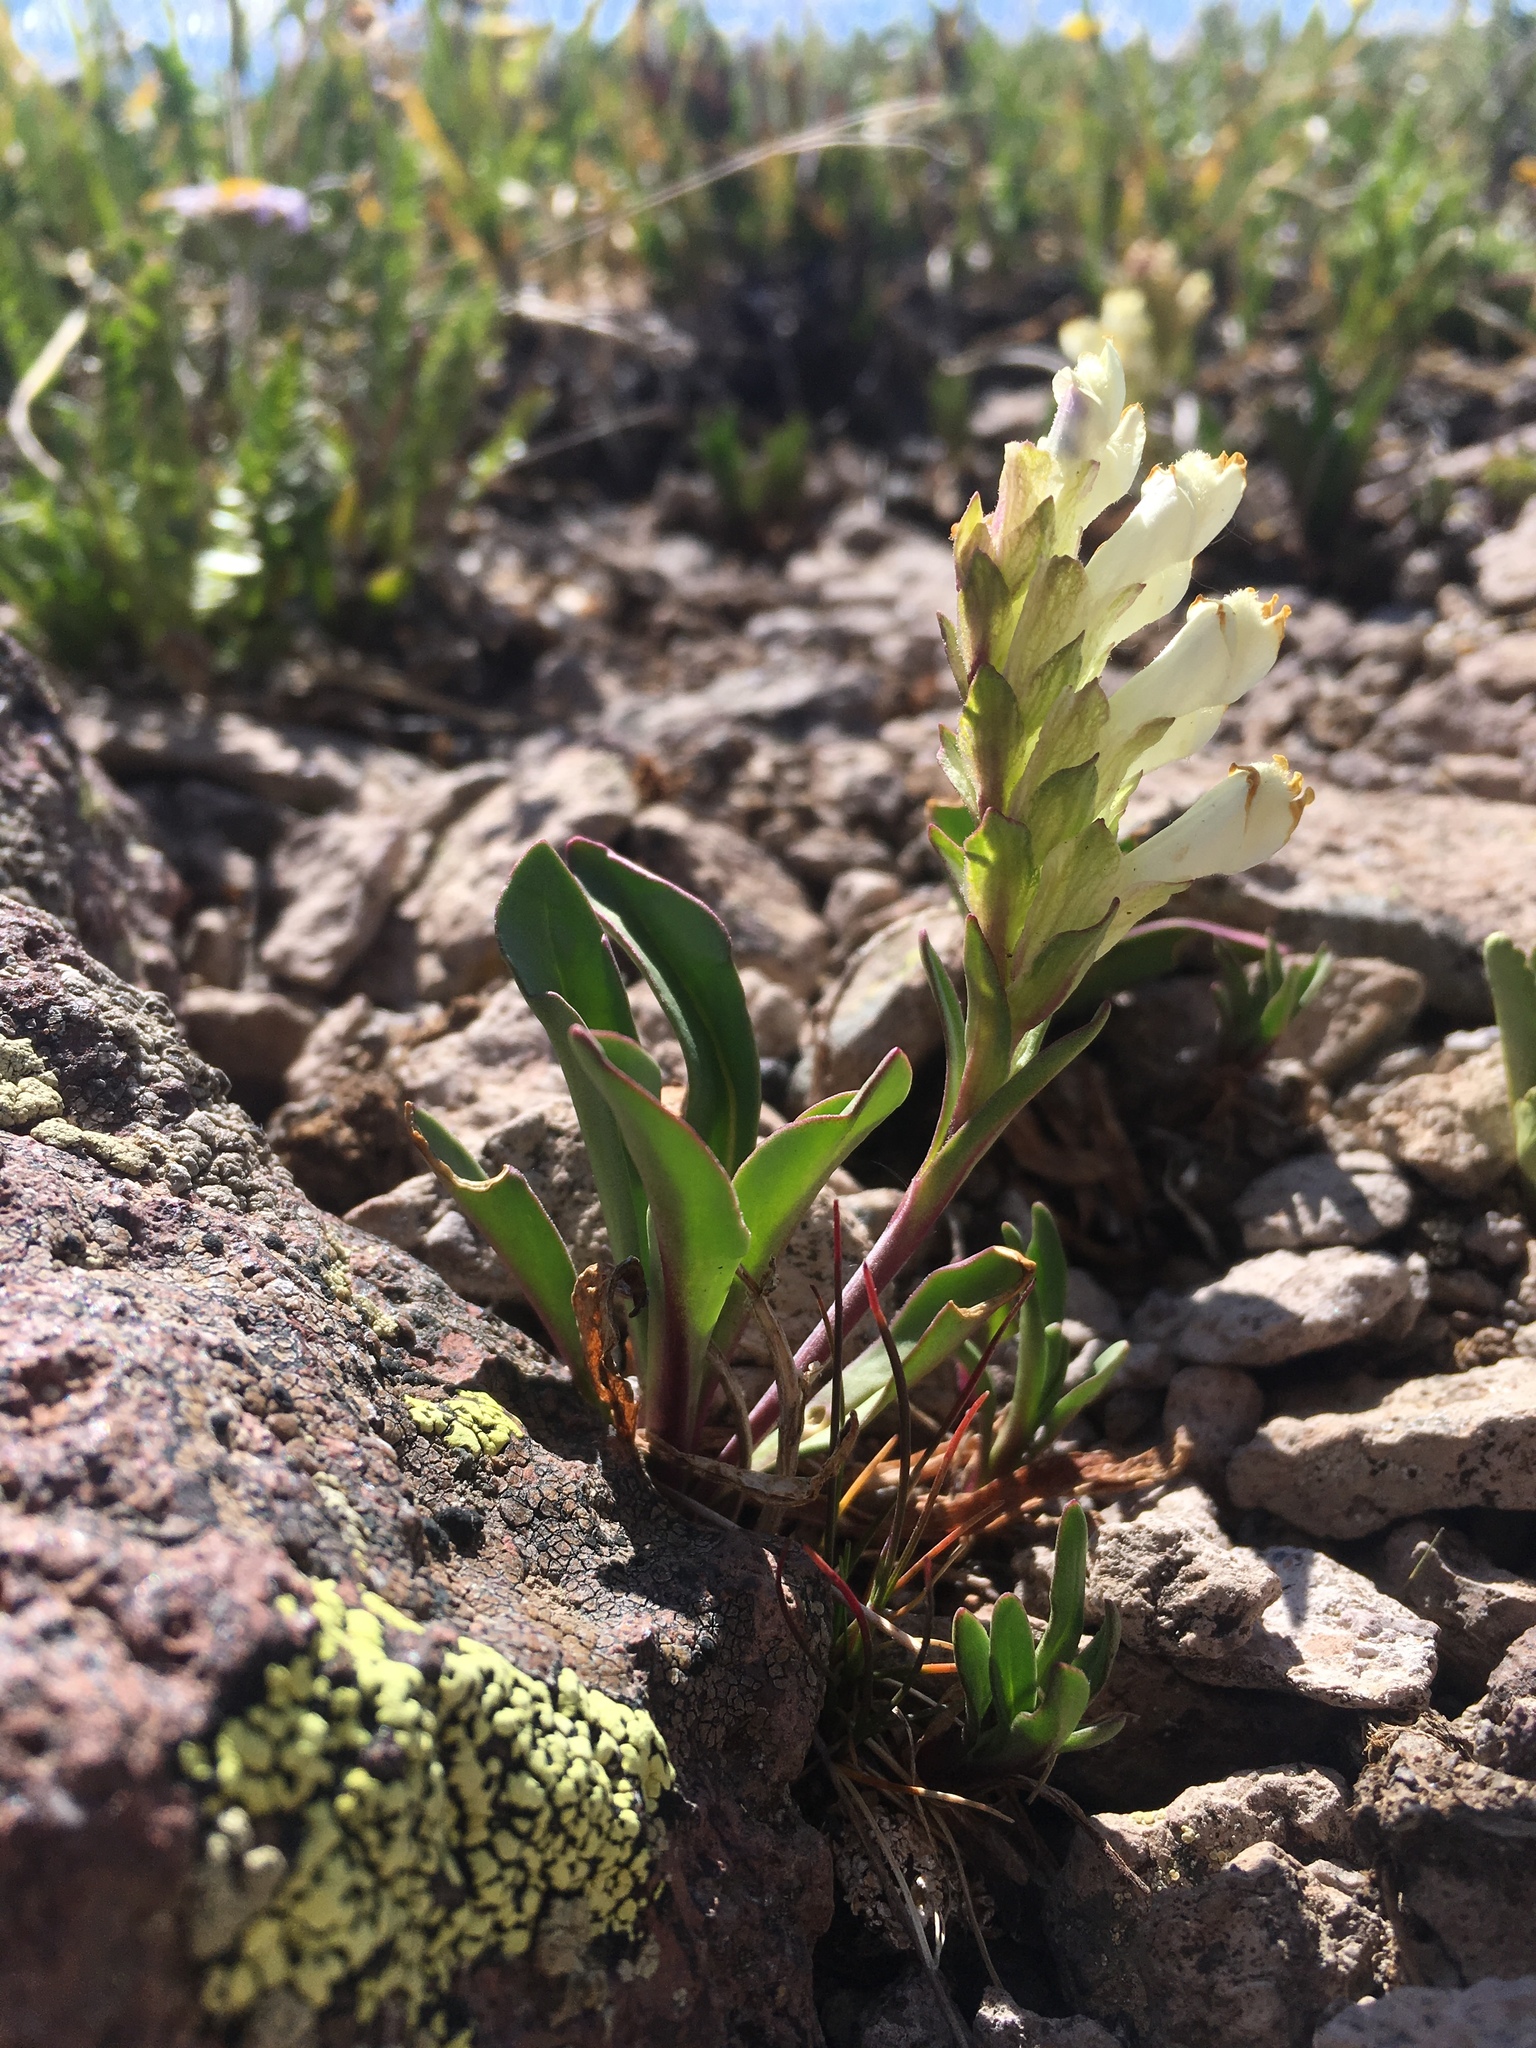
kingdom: Plantae
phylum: Tracheophyta
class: Magnoliopsida
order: Lamiales
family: Plantaginaceae
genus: Chionophila
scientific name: Chionophila jamesii
